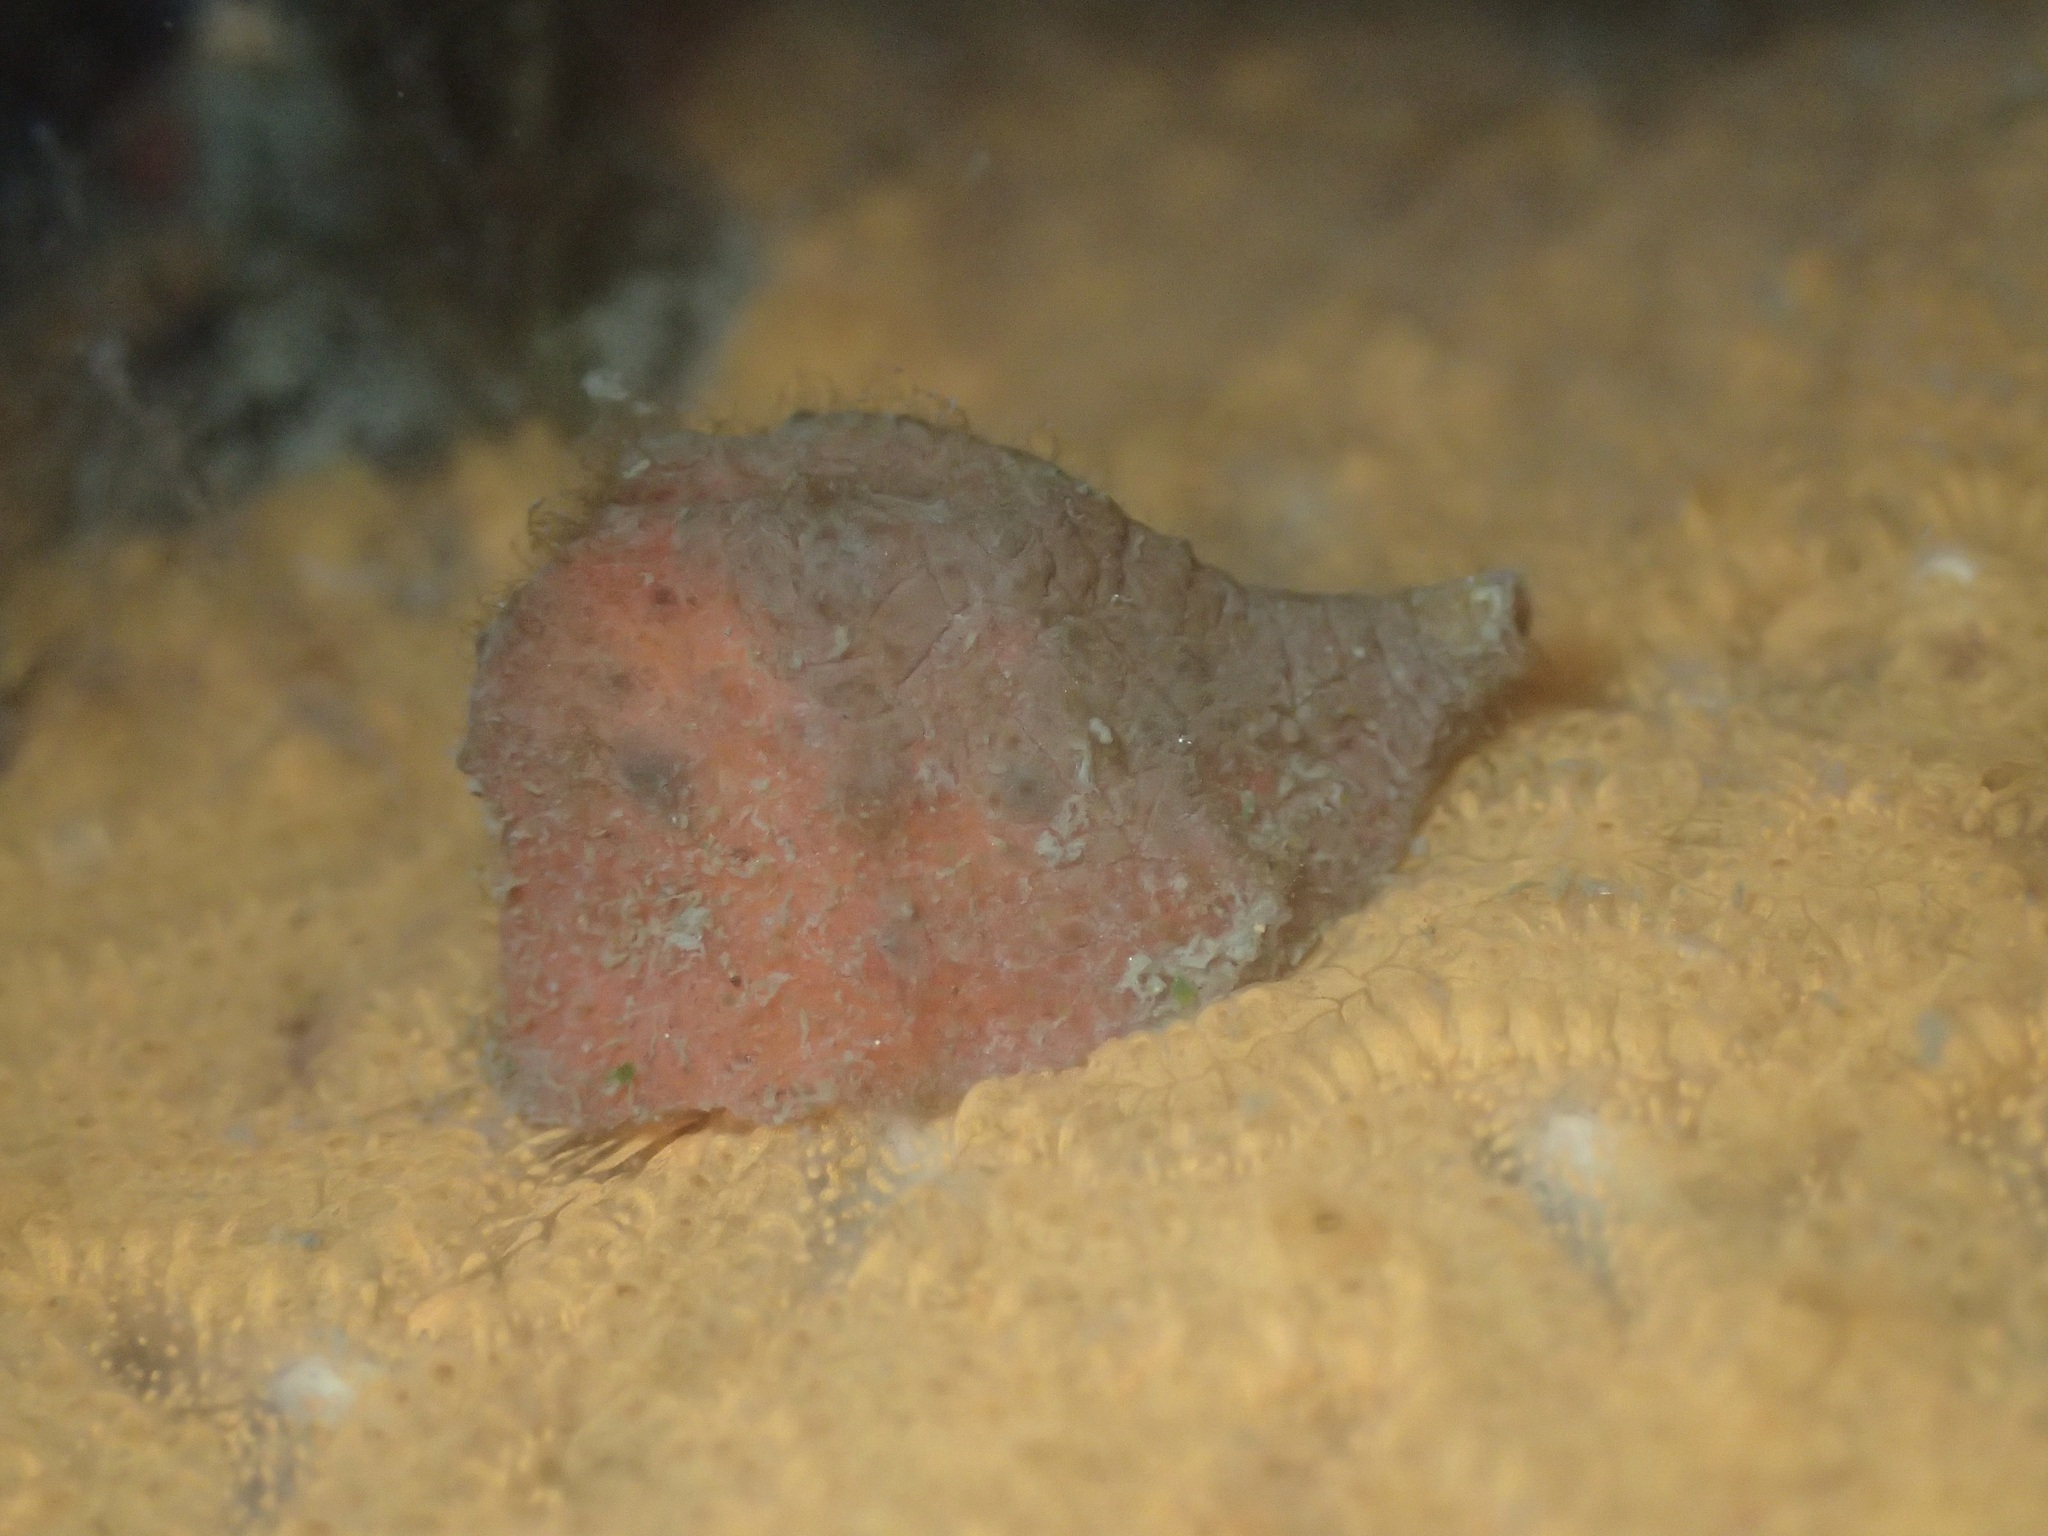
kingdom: Animalia
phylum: Mollusca
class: Gastropoda
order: Littorinimorpha
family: Velutinidae
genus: Hainotis
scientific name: Hainotis sharonae
